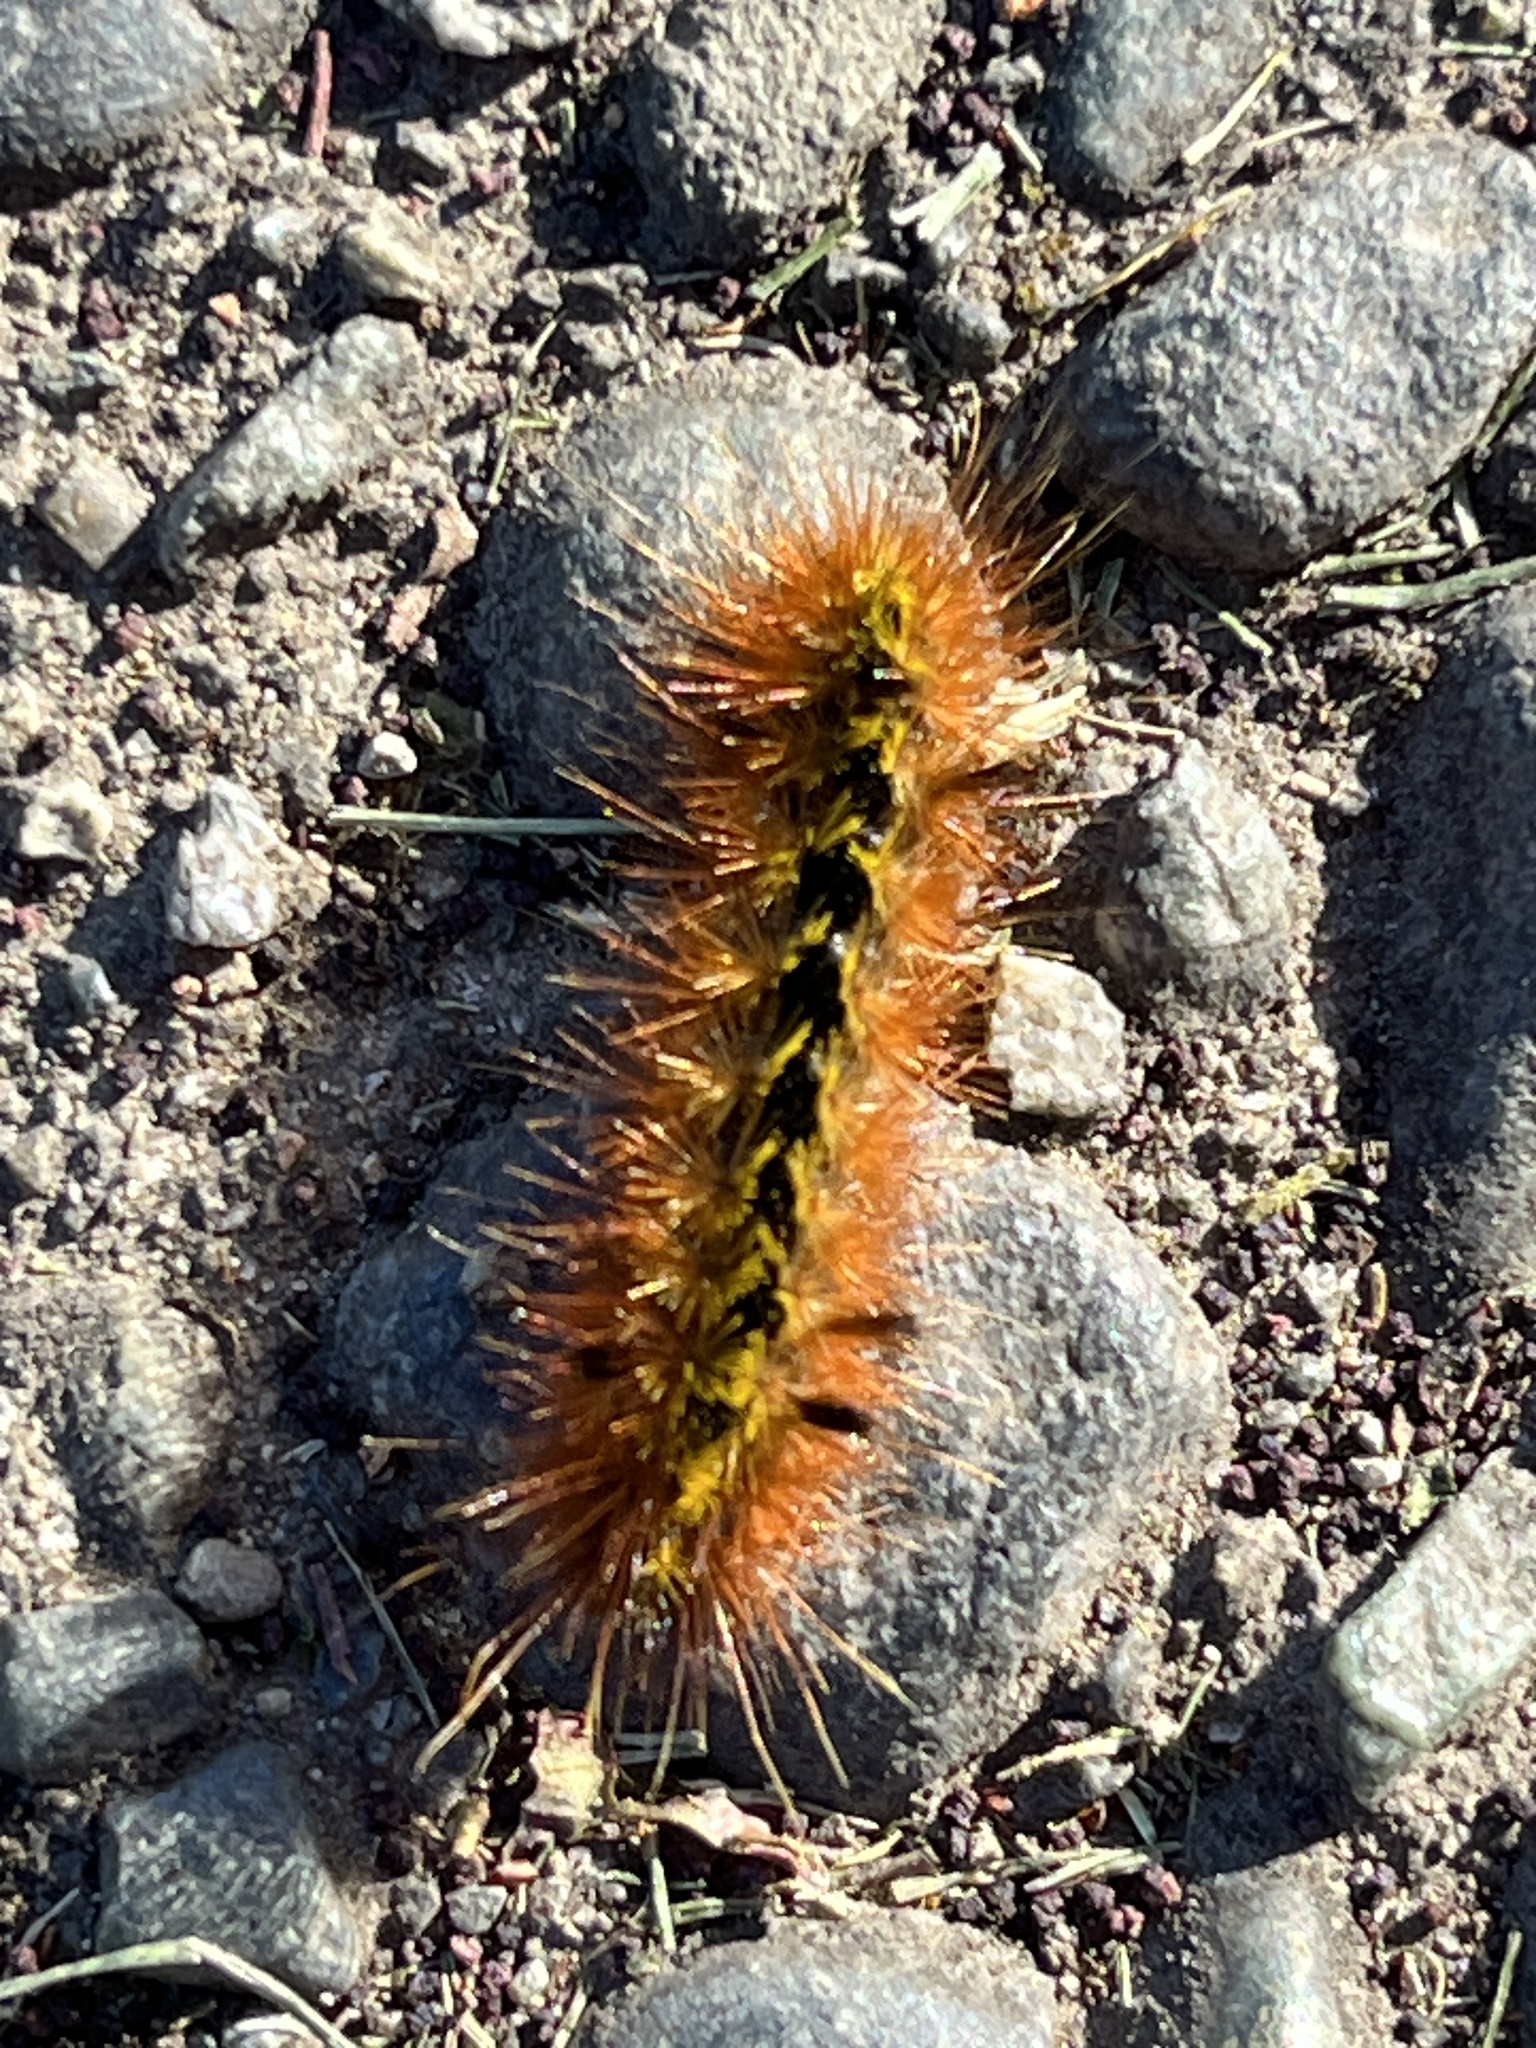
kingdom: Animalia
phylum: Arthropoda
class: Insecta
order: Lepidoptera
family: Erebidae
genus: Lophocampa
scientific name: Lophocampa argentata
